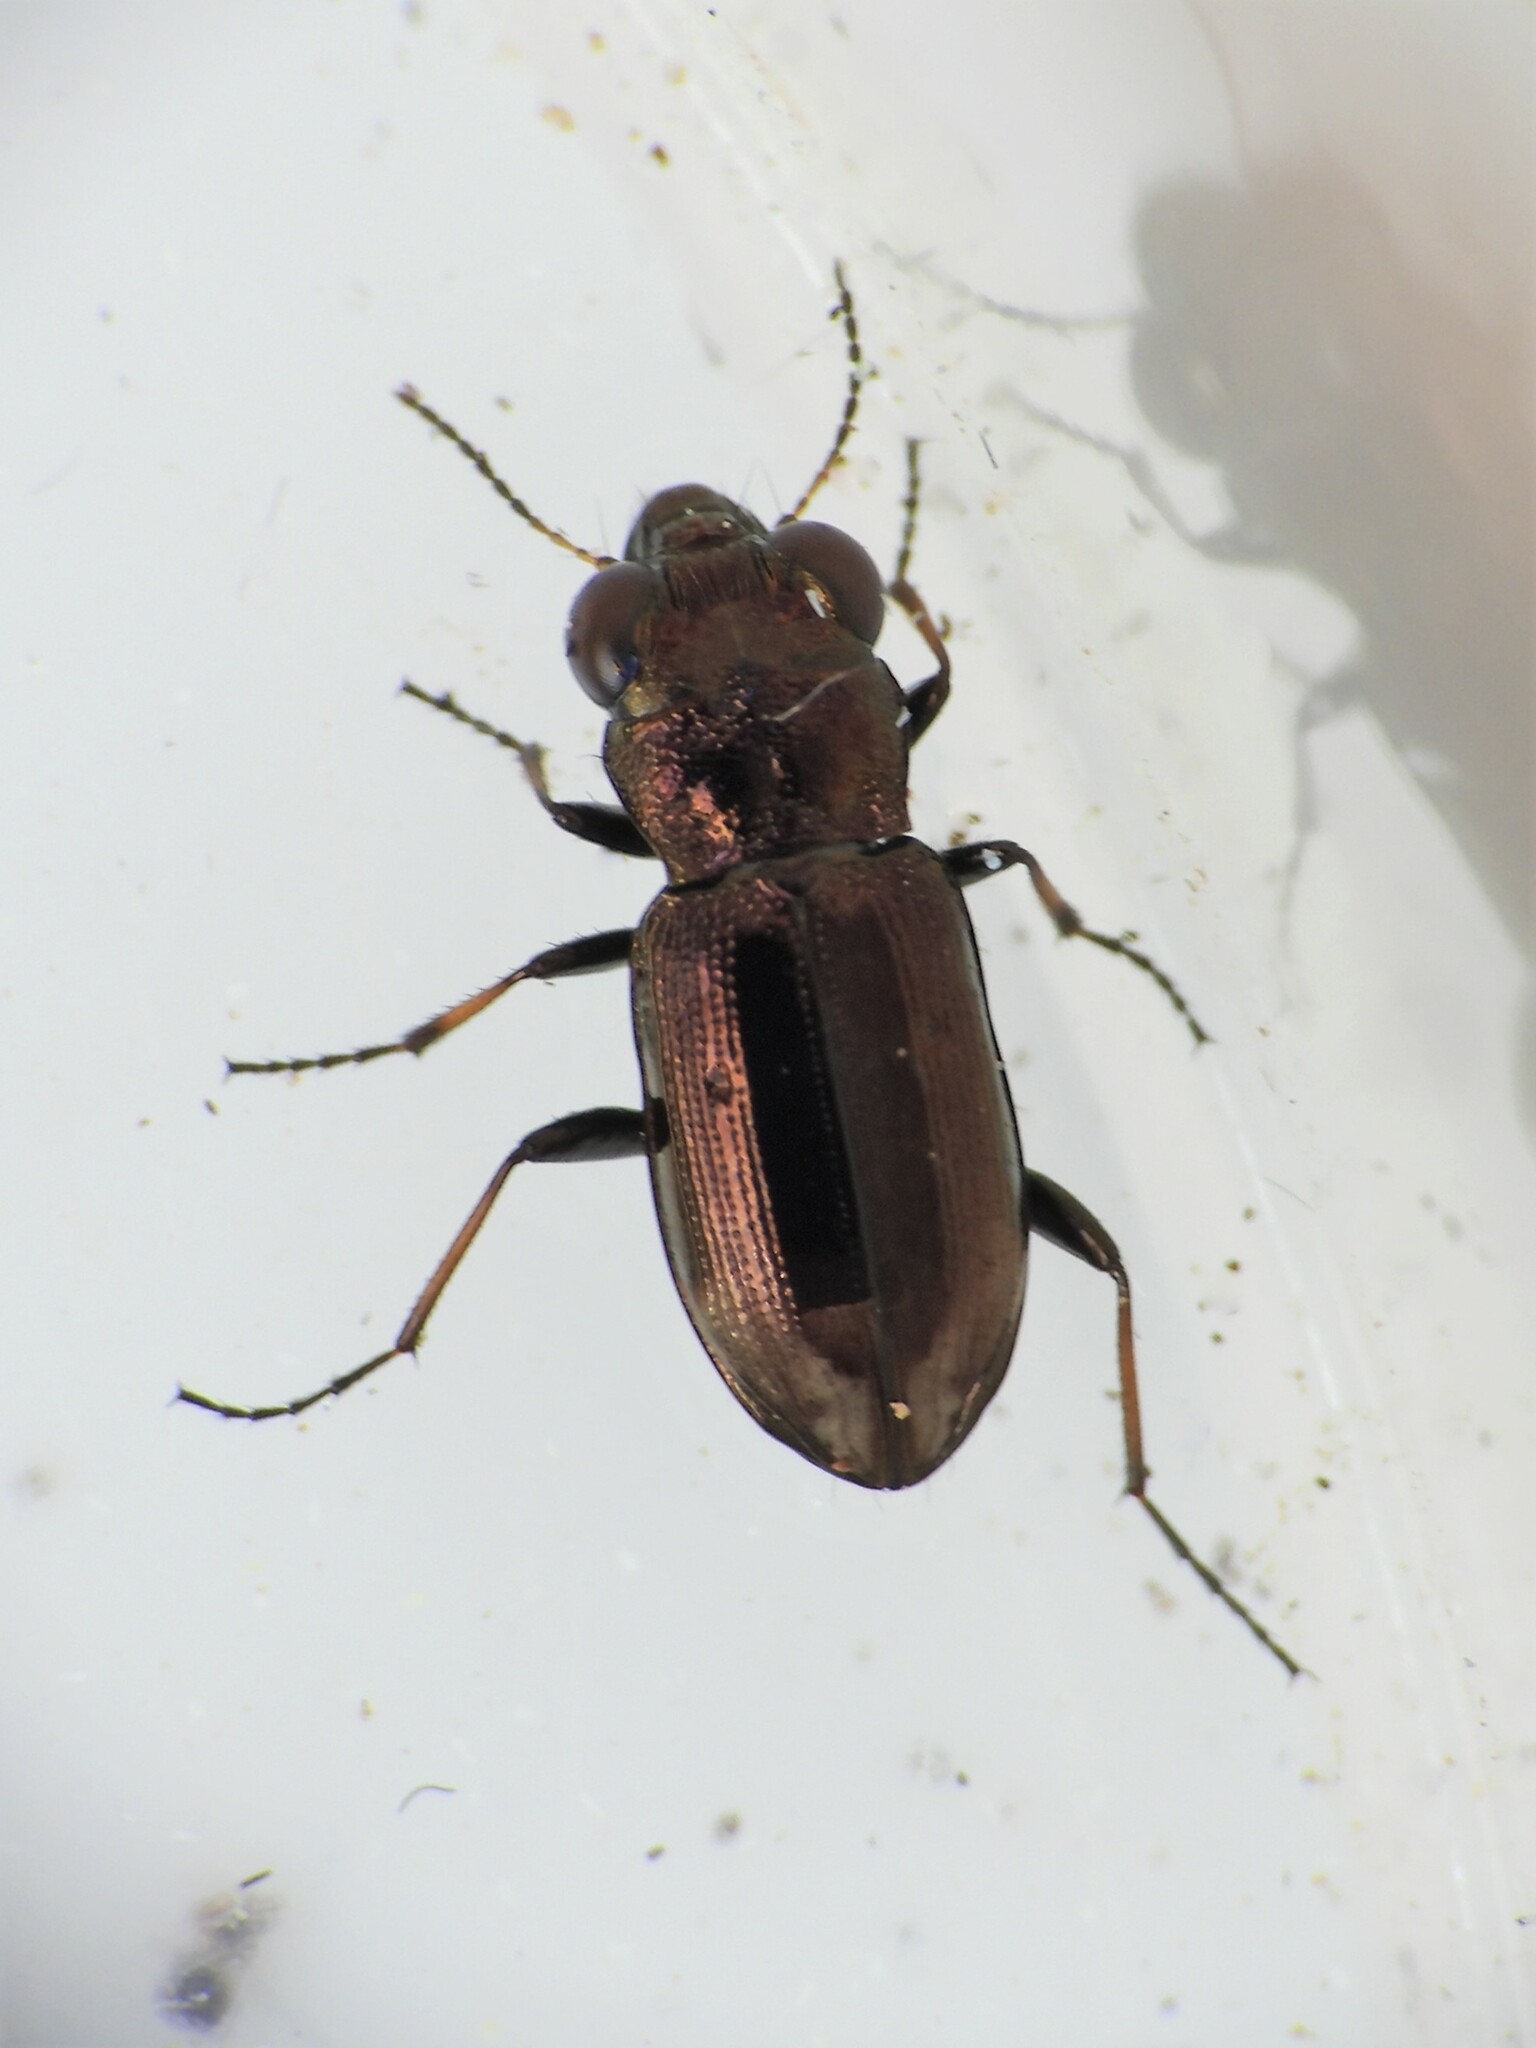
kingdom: Animalia
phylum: Arthropoda
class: Insecta
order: Coleoptera
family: Carabidae
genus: Notiophilus
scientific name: Notiophilus biguttatus
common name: Spotted gazelle beetle
